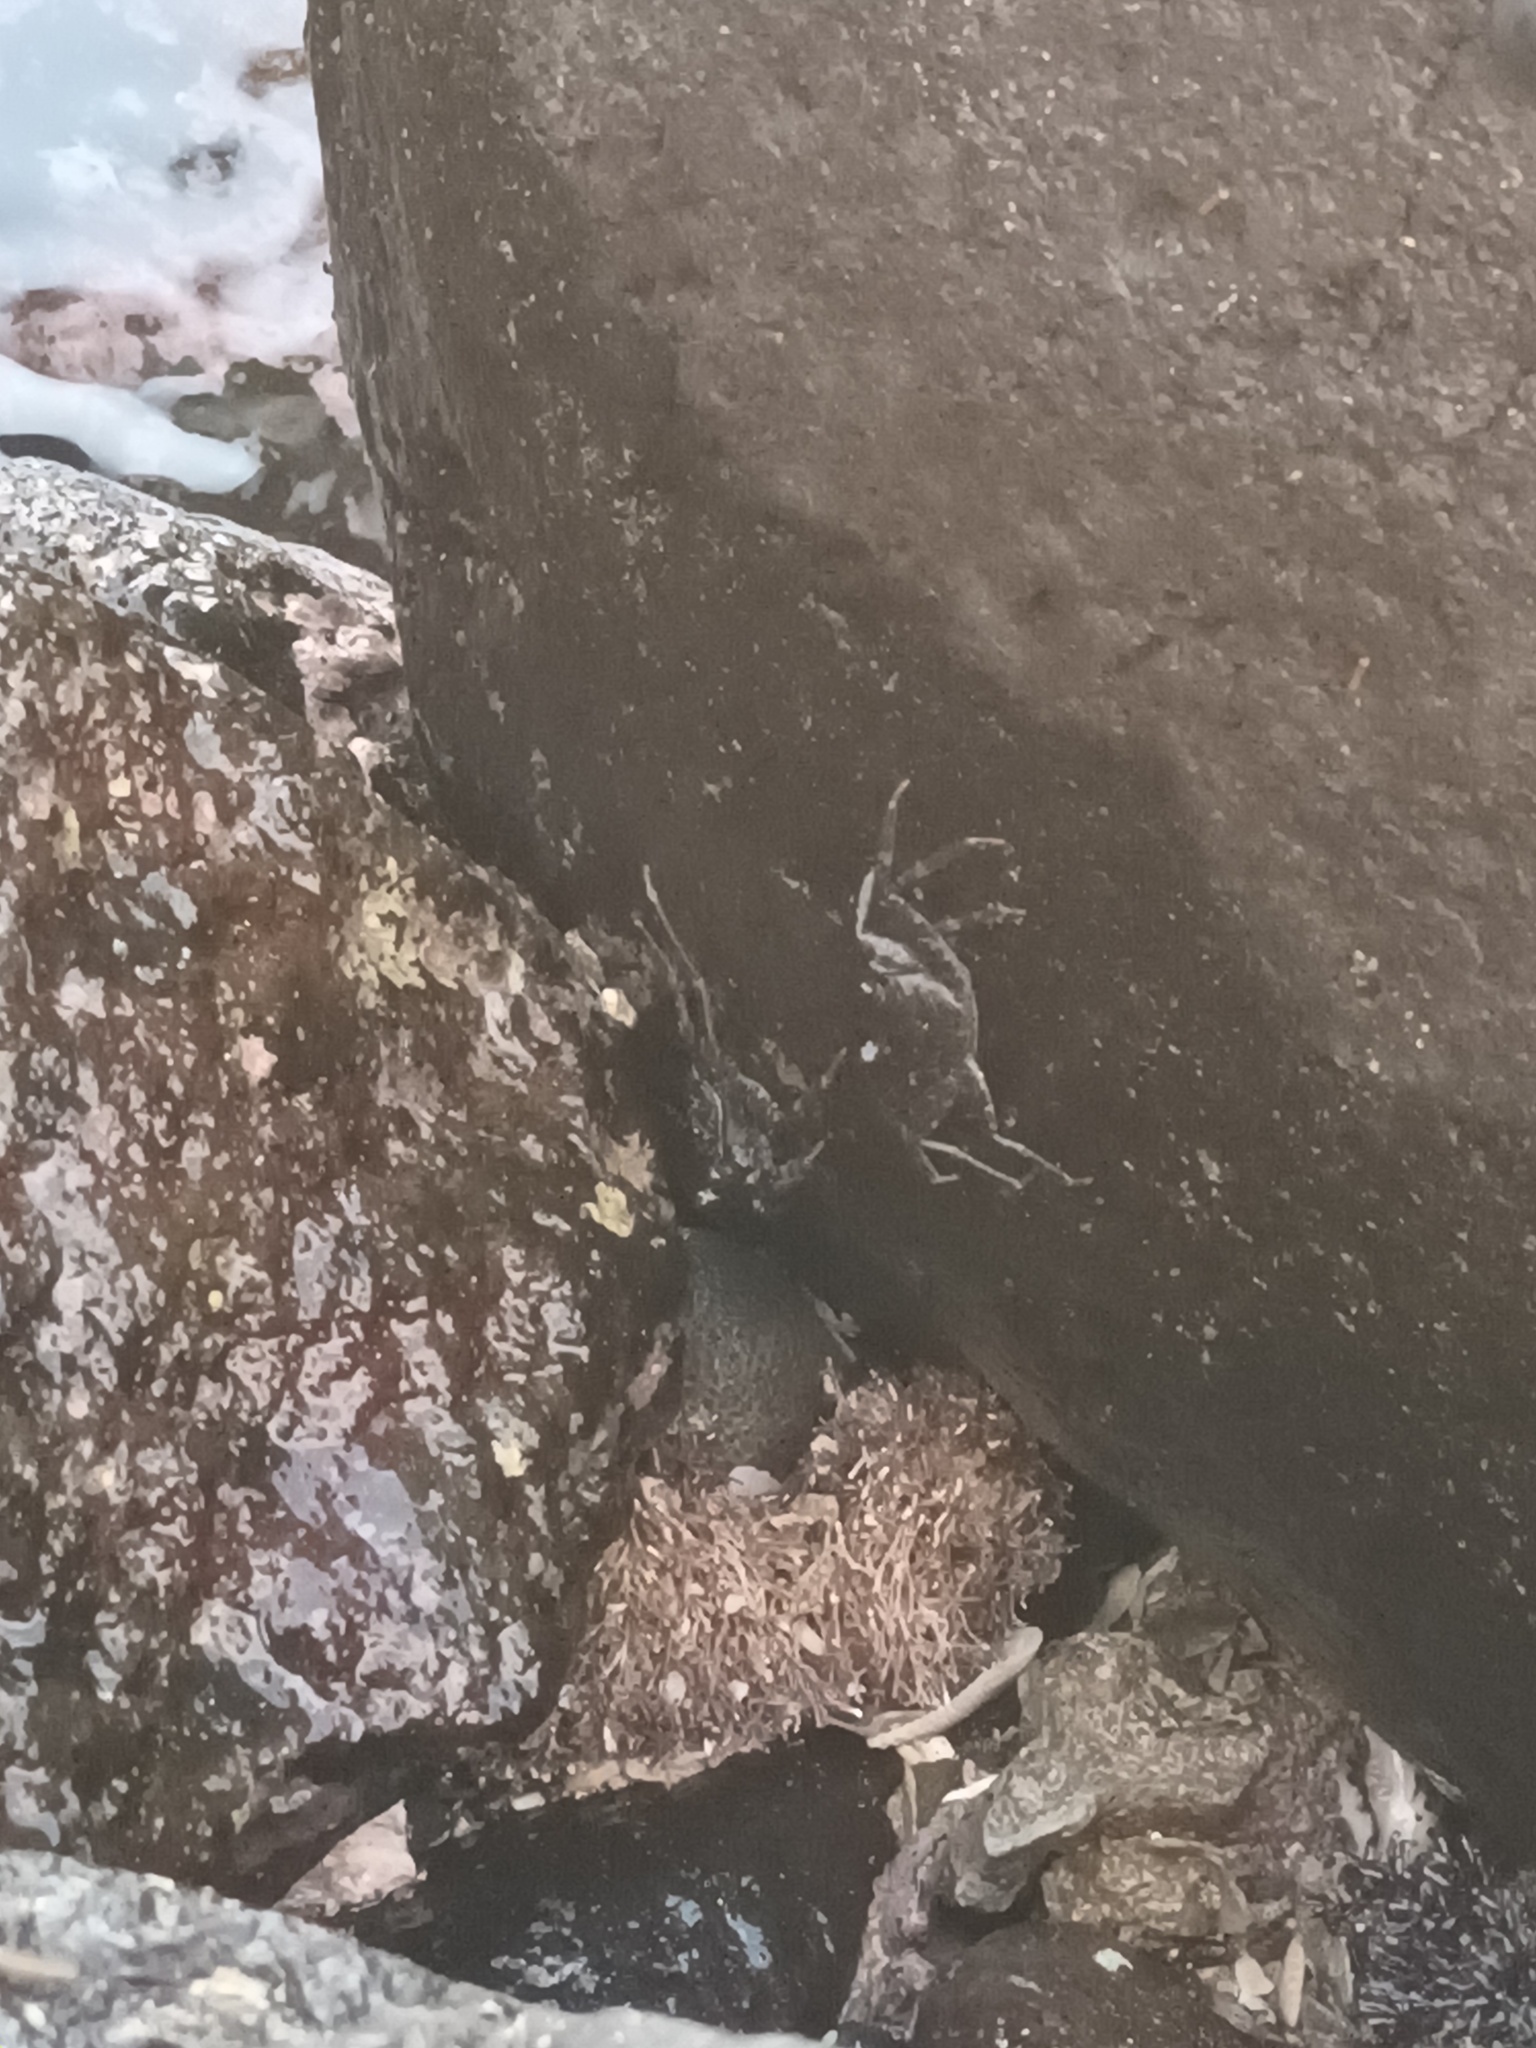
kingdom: Animalia
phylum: Arthropoda
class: Malacostraca
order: Decapoda
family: Grapsidae
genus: Grapsus
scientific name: Grapsus tenuicrustatus
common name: Natal lightfoot crab
